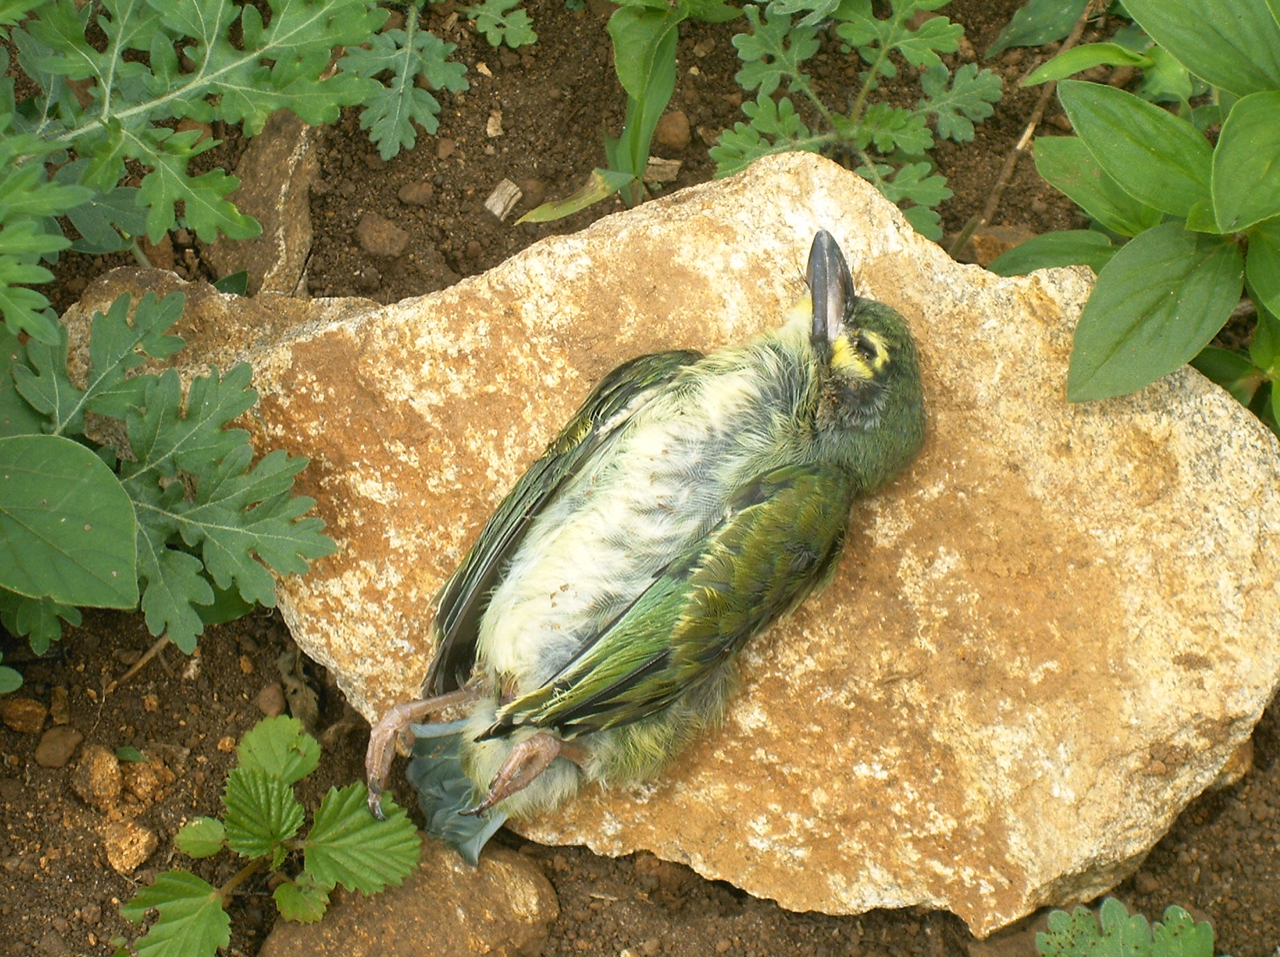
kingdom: Animalia
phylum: Chordata
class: Aves
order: Piciformes
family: Megalaimidae
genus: Psilopogon
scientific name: Psilopogon haemacephalus
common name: Coppersmith barbet
